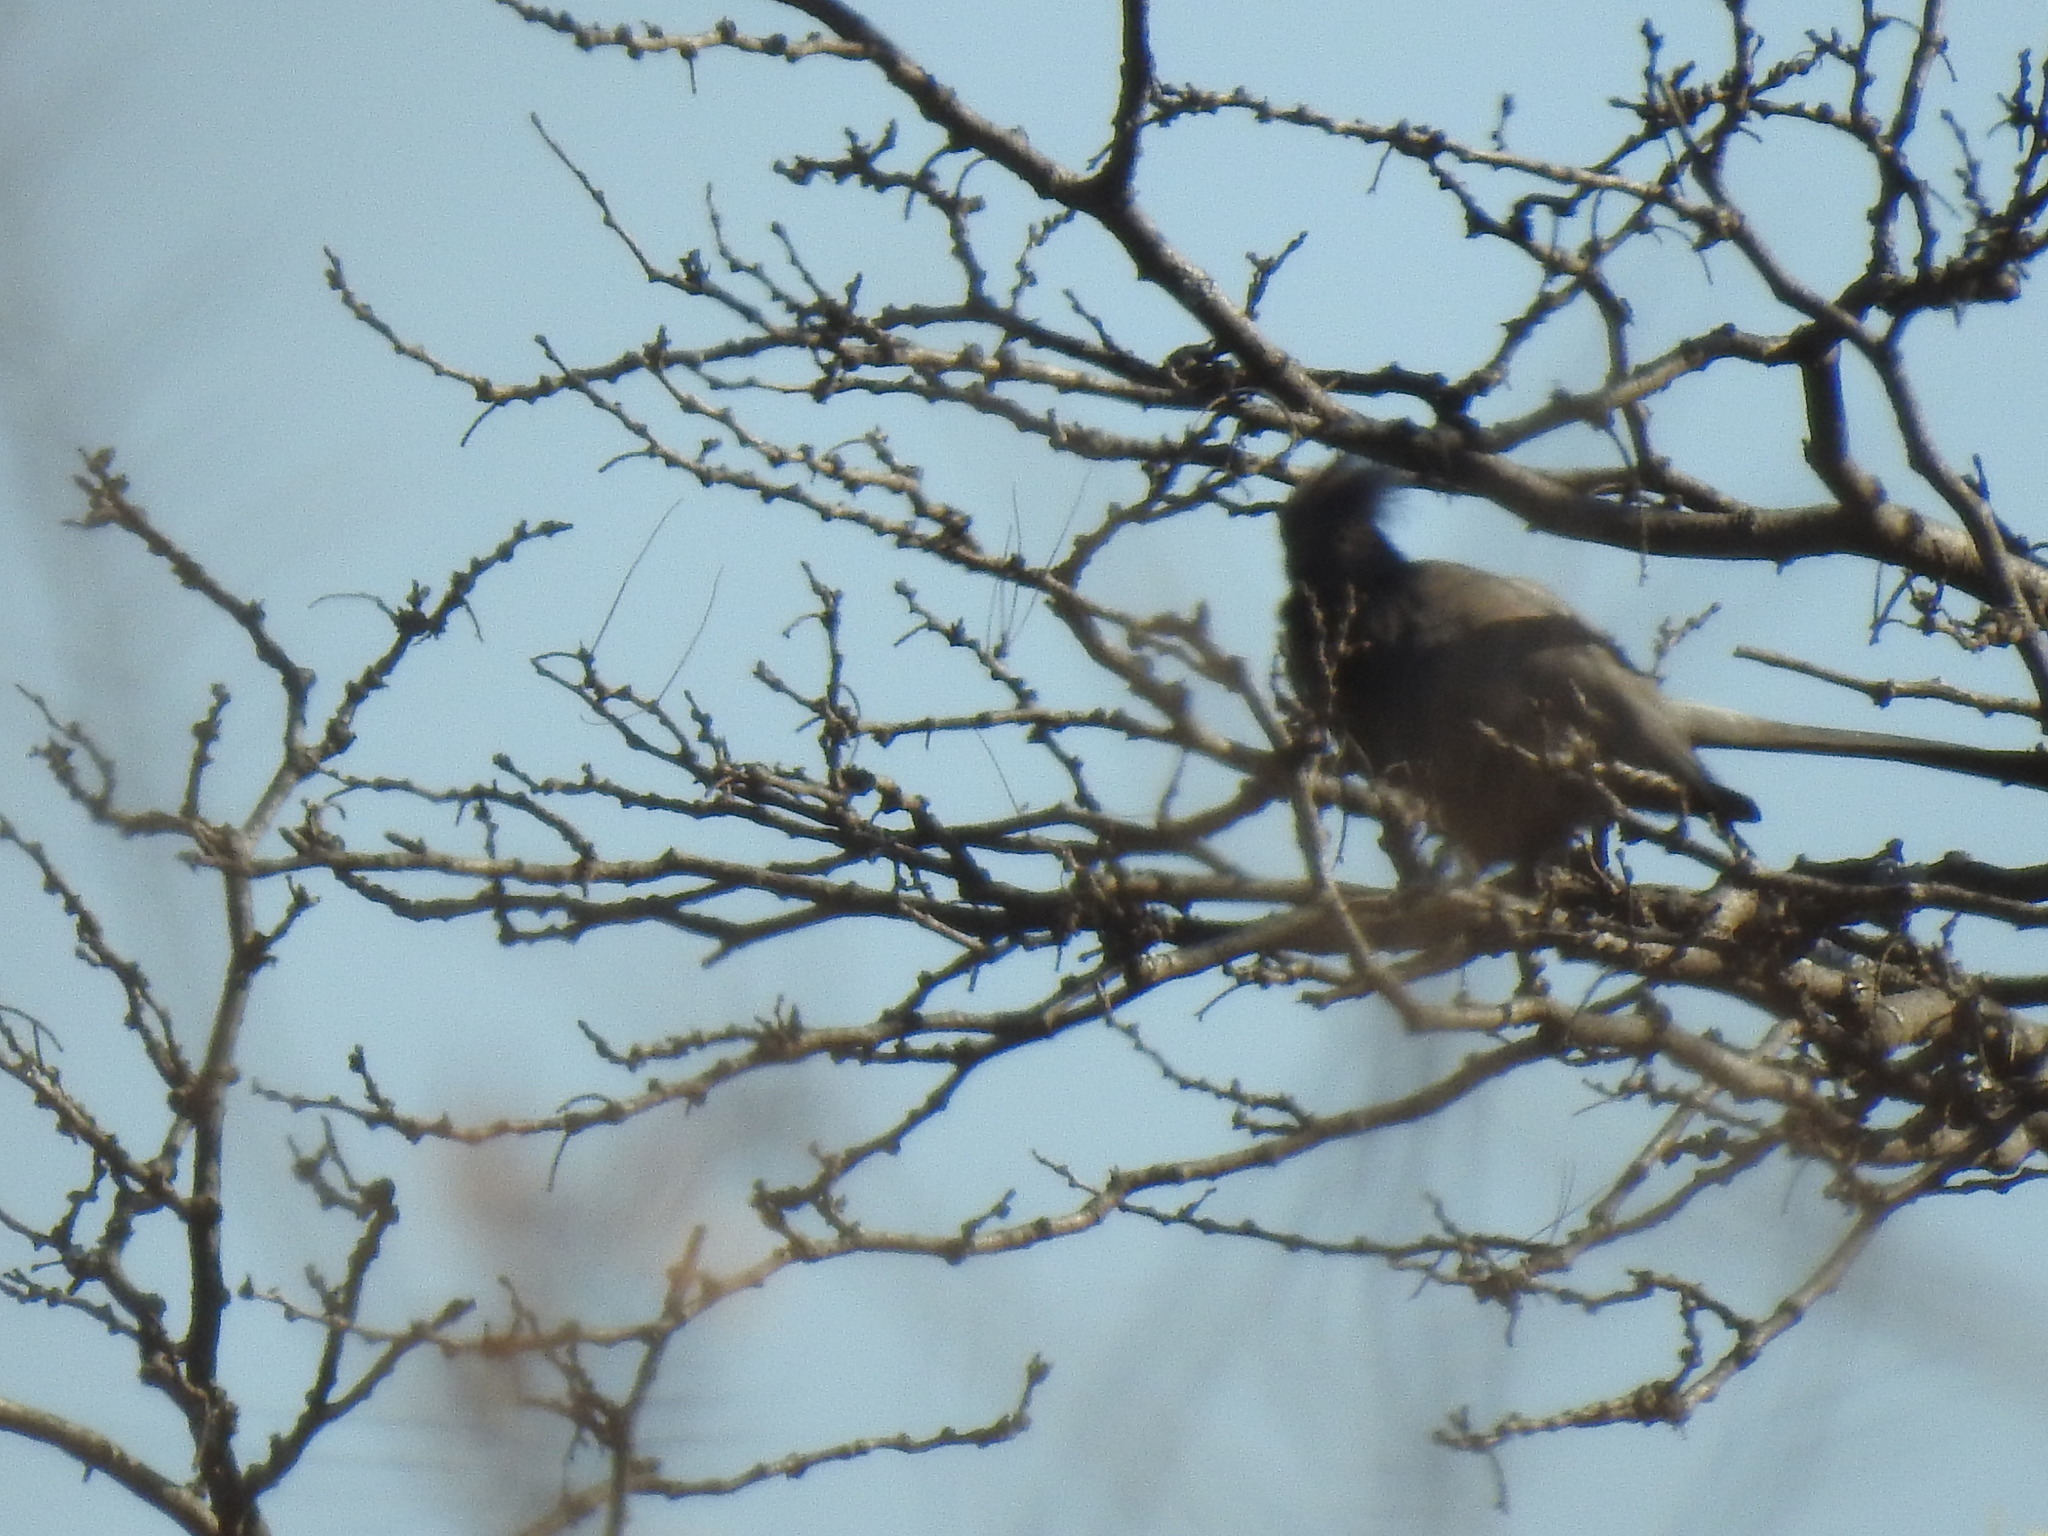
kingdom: Animalia
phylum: Chordata
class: Aves
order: Musophagiformes
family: Musophagidae
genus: Corythaixoides
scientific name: Corythaixoides concolor
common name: Grey go-away-bird
